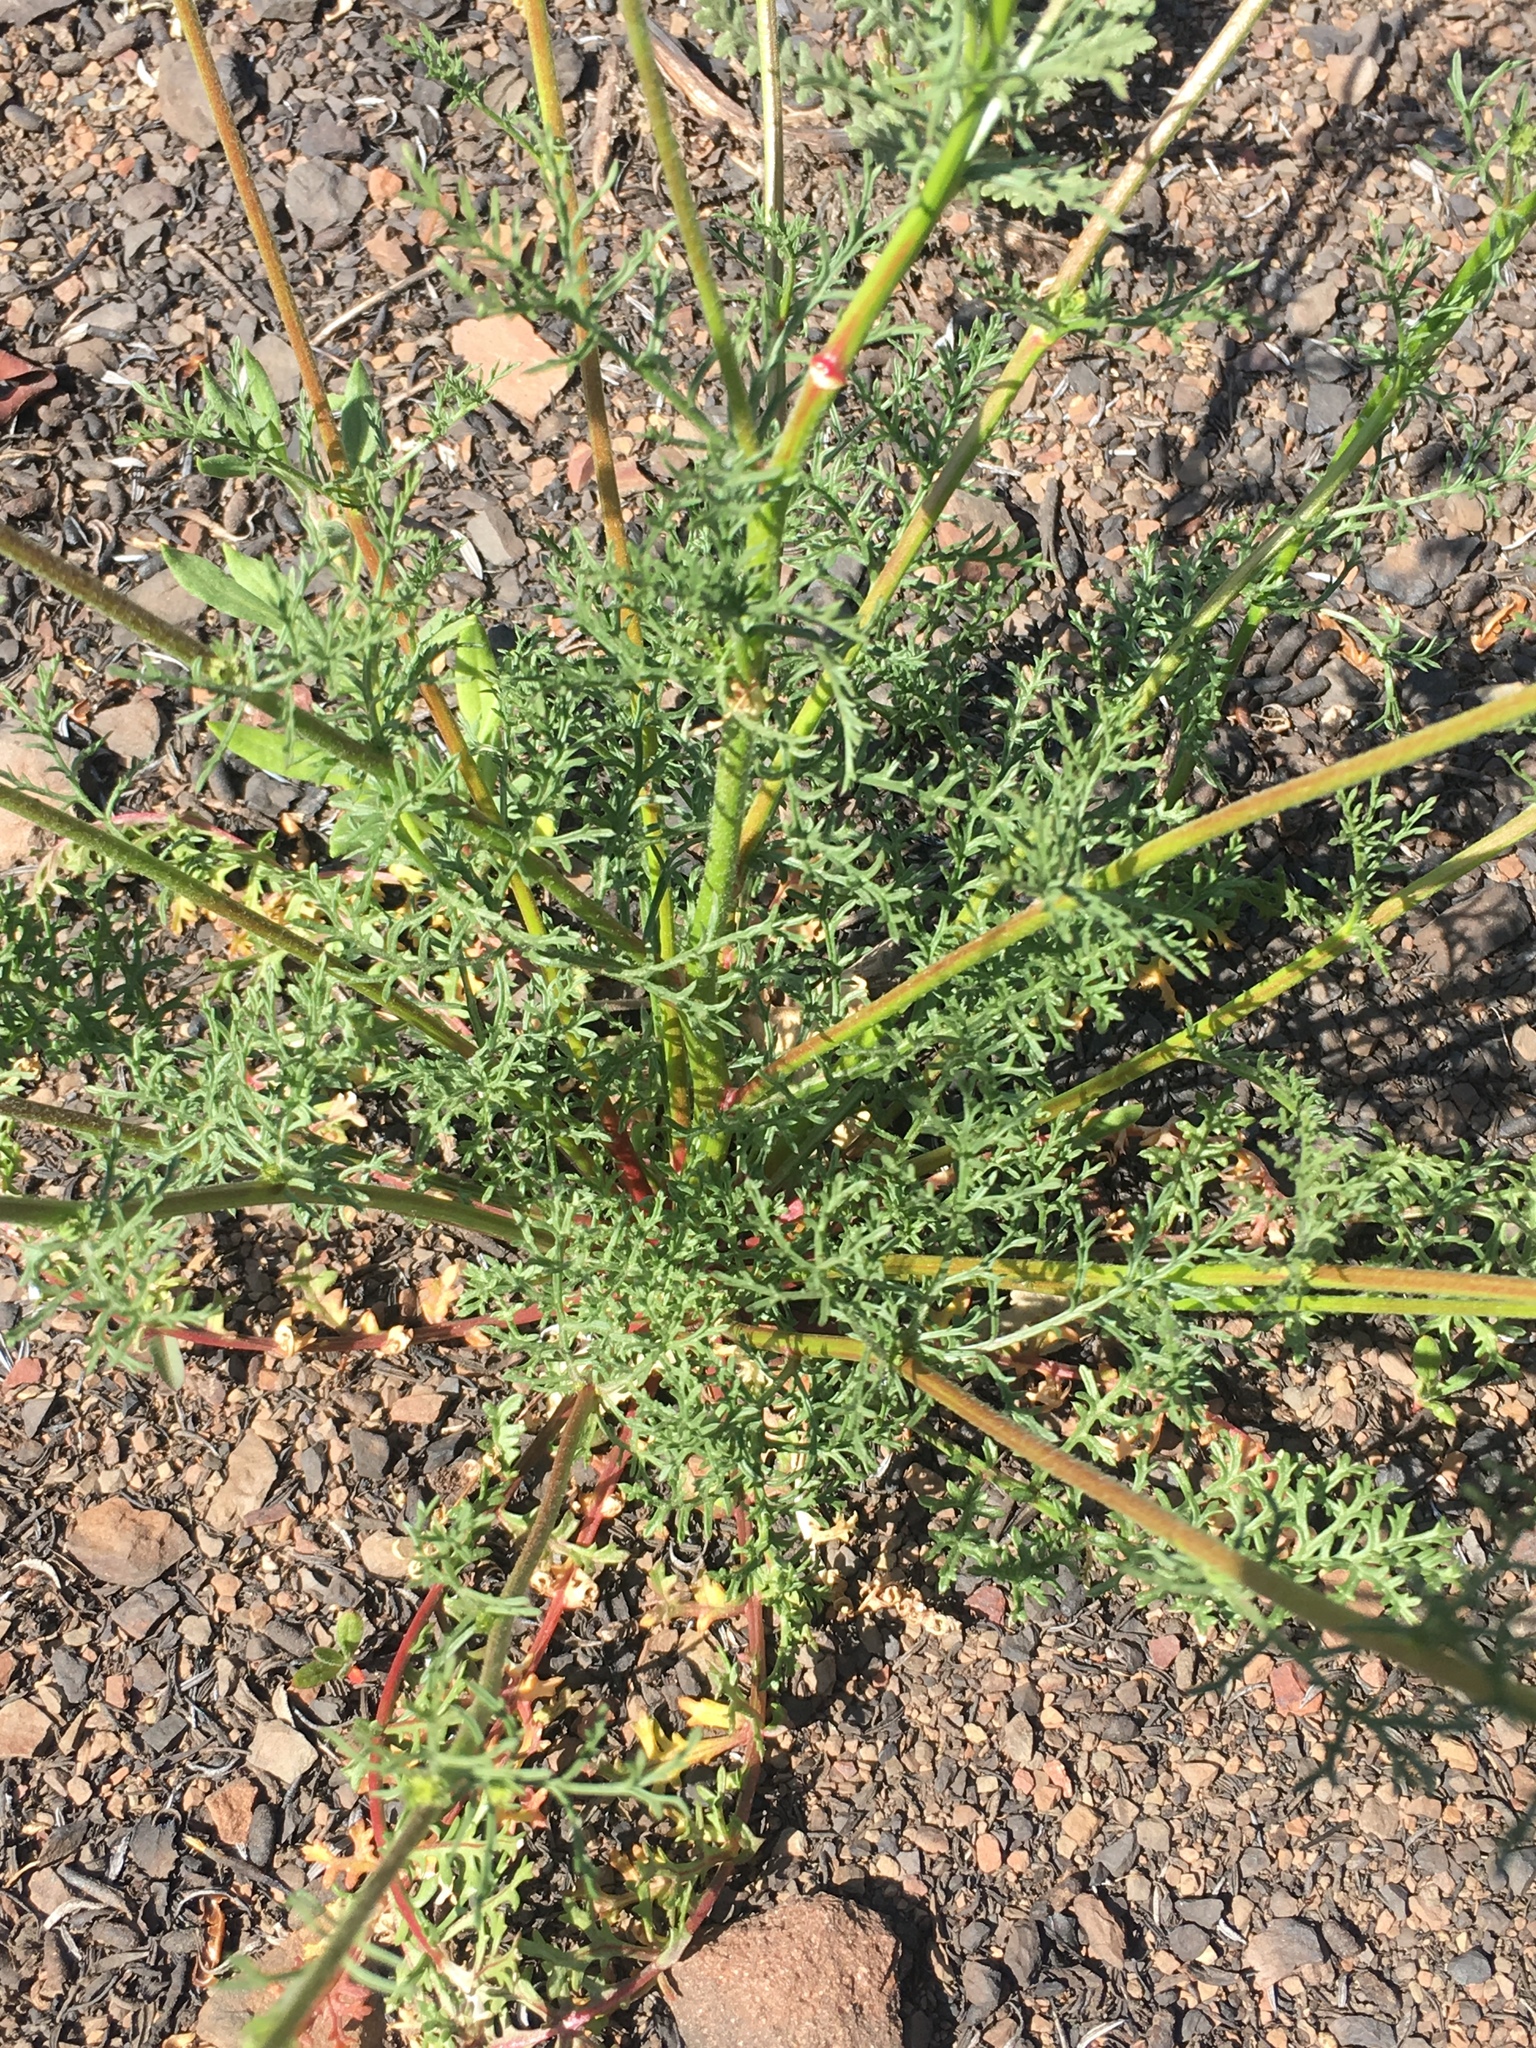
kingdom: Plantae
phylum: Tracheophyta
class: Magnoliopsida
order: Ericales
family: Polemoniaceae
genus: Gilia
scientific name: Gilia capitata
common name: Bluehead gilia
